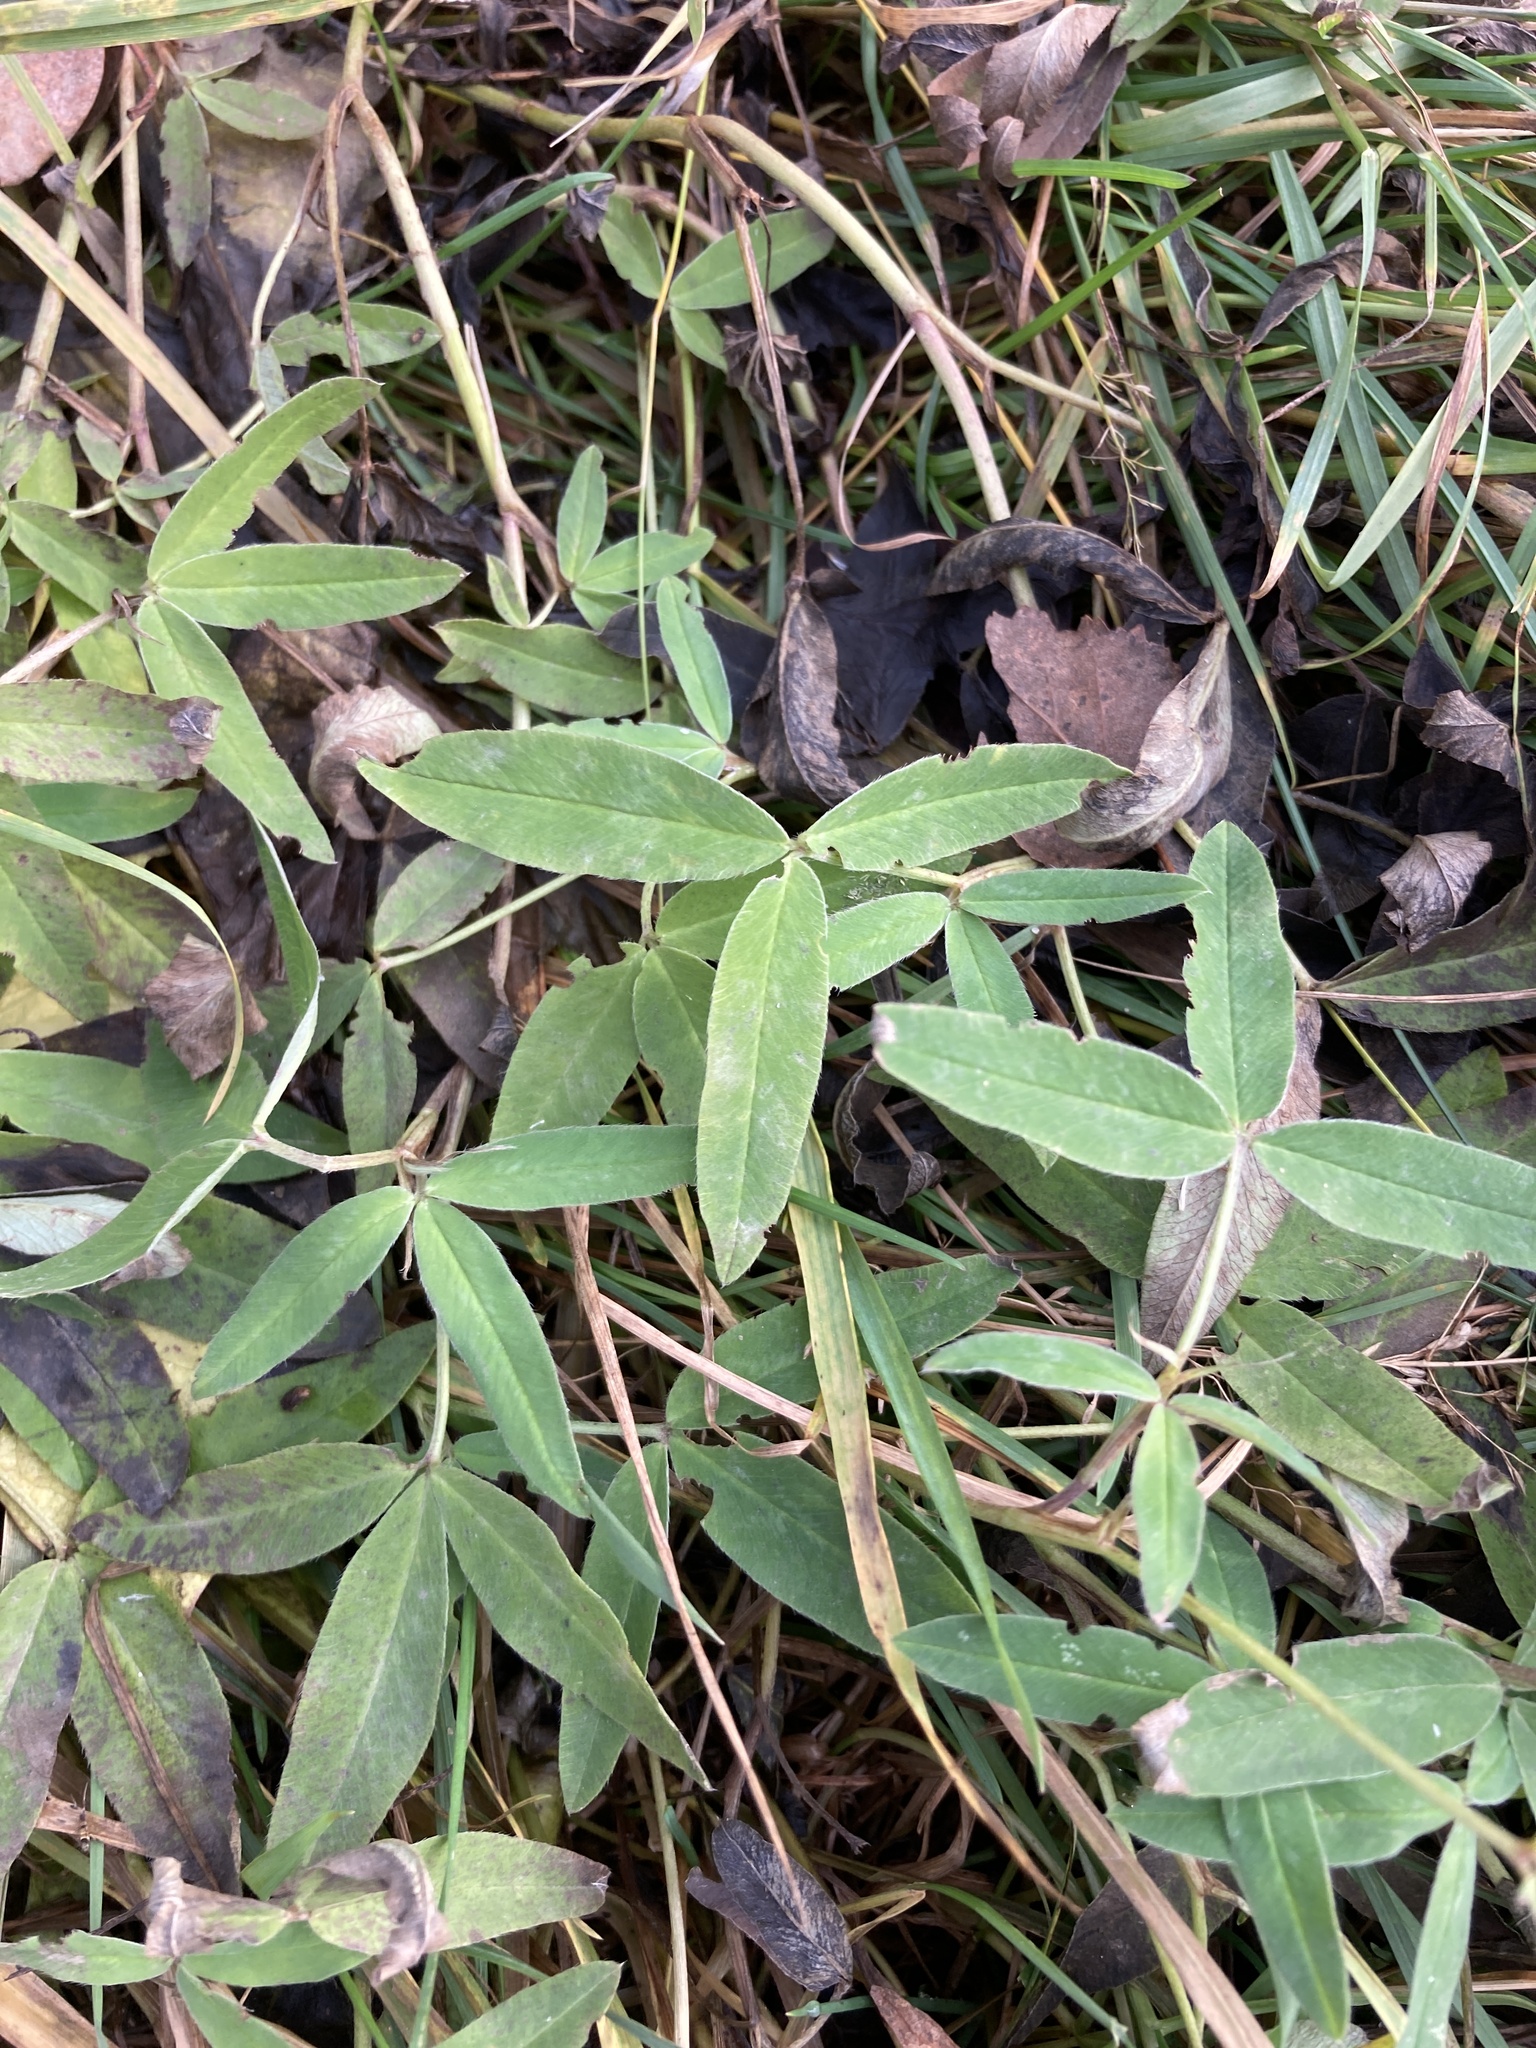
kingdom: Plantae
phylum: Tracheophyta
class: Magnoliopsida
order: Fabales
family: Fabaceae
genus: Trifolium
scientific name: Trifolium medium
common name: Zigzag clover
